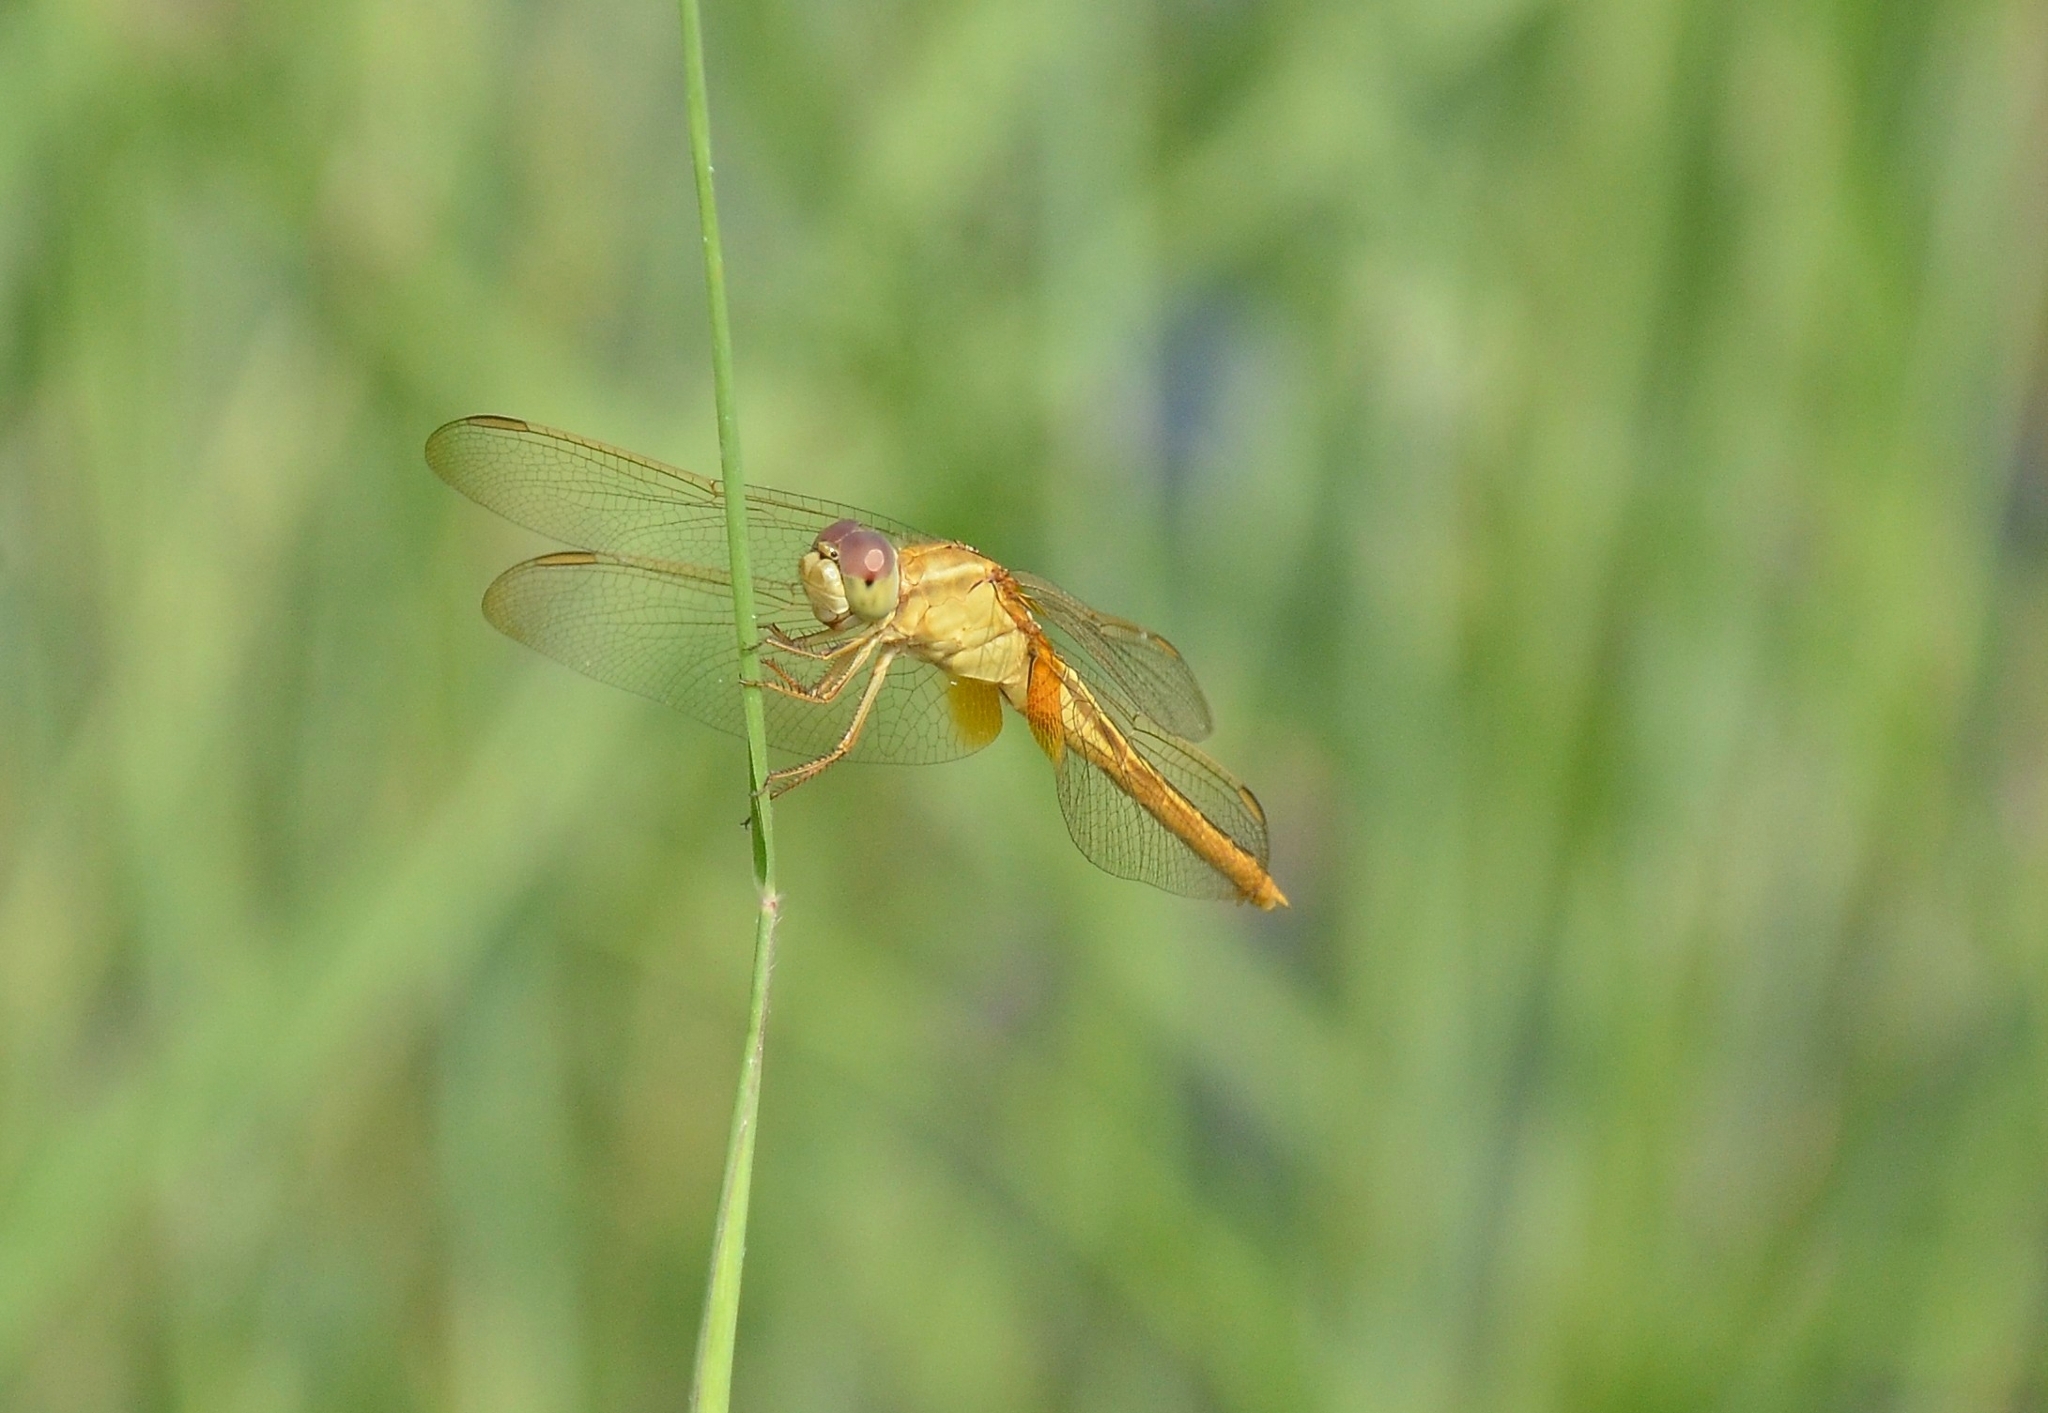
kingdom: Animalia
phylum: Arthropoda
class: Insecta
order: Odonata
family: Libellulidae
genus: Crocothemis
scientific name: Crocothemis servilia
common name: Scarlet skimmer
